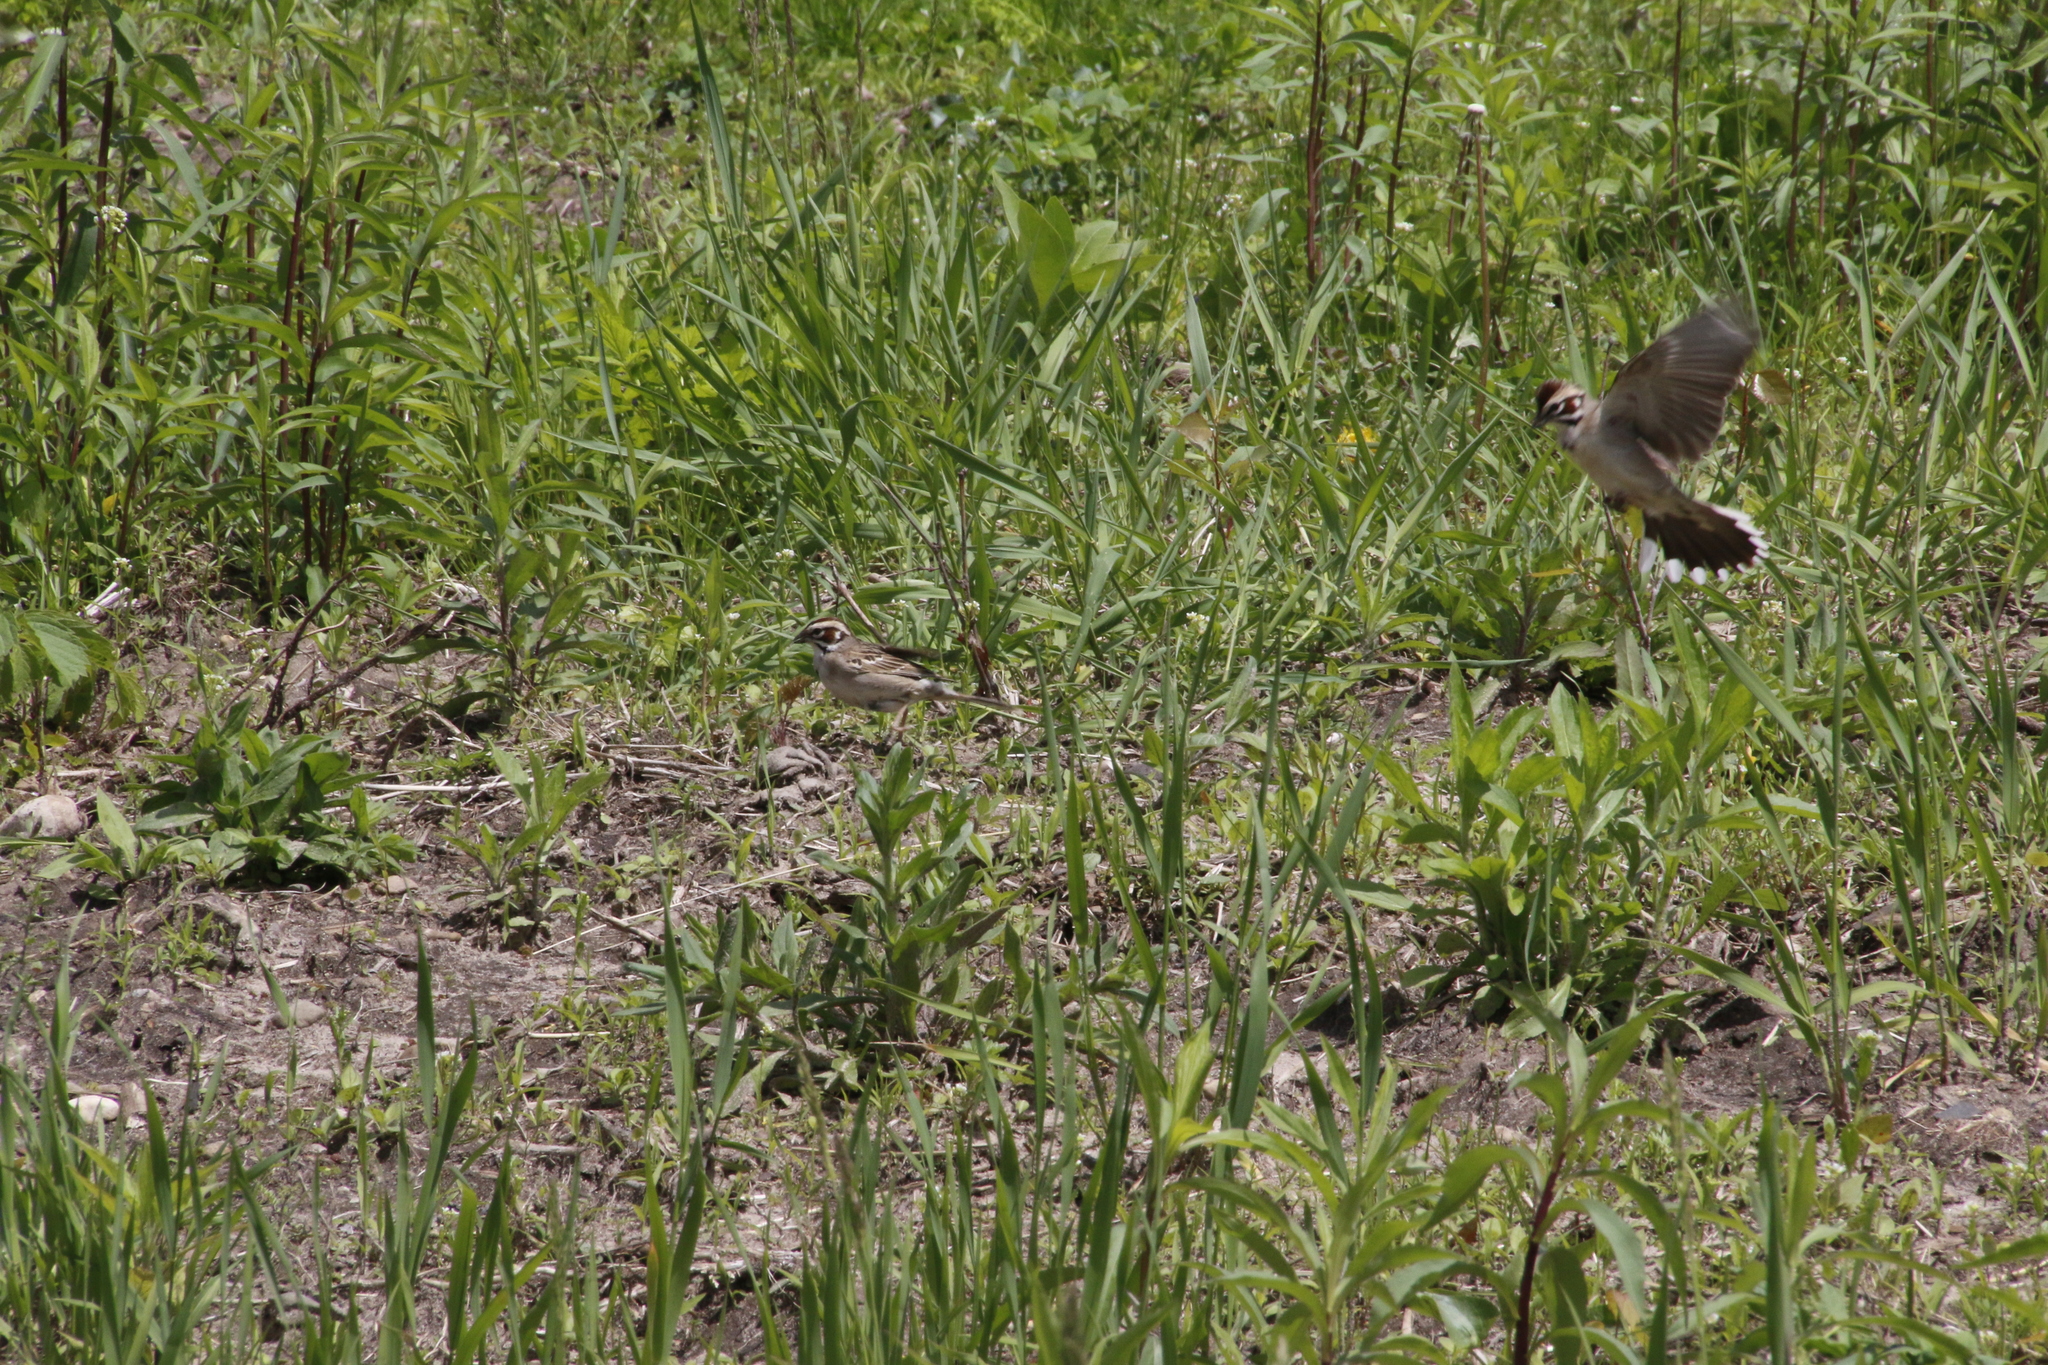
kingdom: Animalia
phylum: Chordata
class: Aves
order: Passeriformes
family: Passerellidae
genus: Chondestes
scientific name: Chondestes grammacus
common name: Lark sparrow
